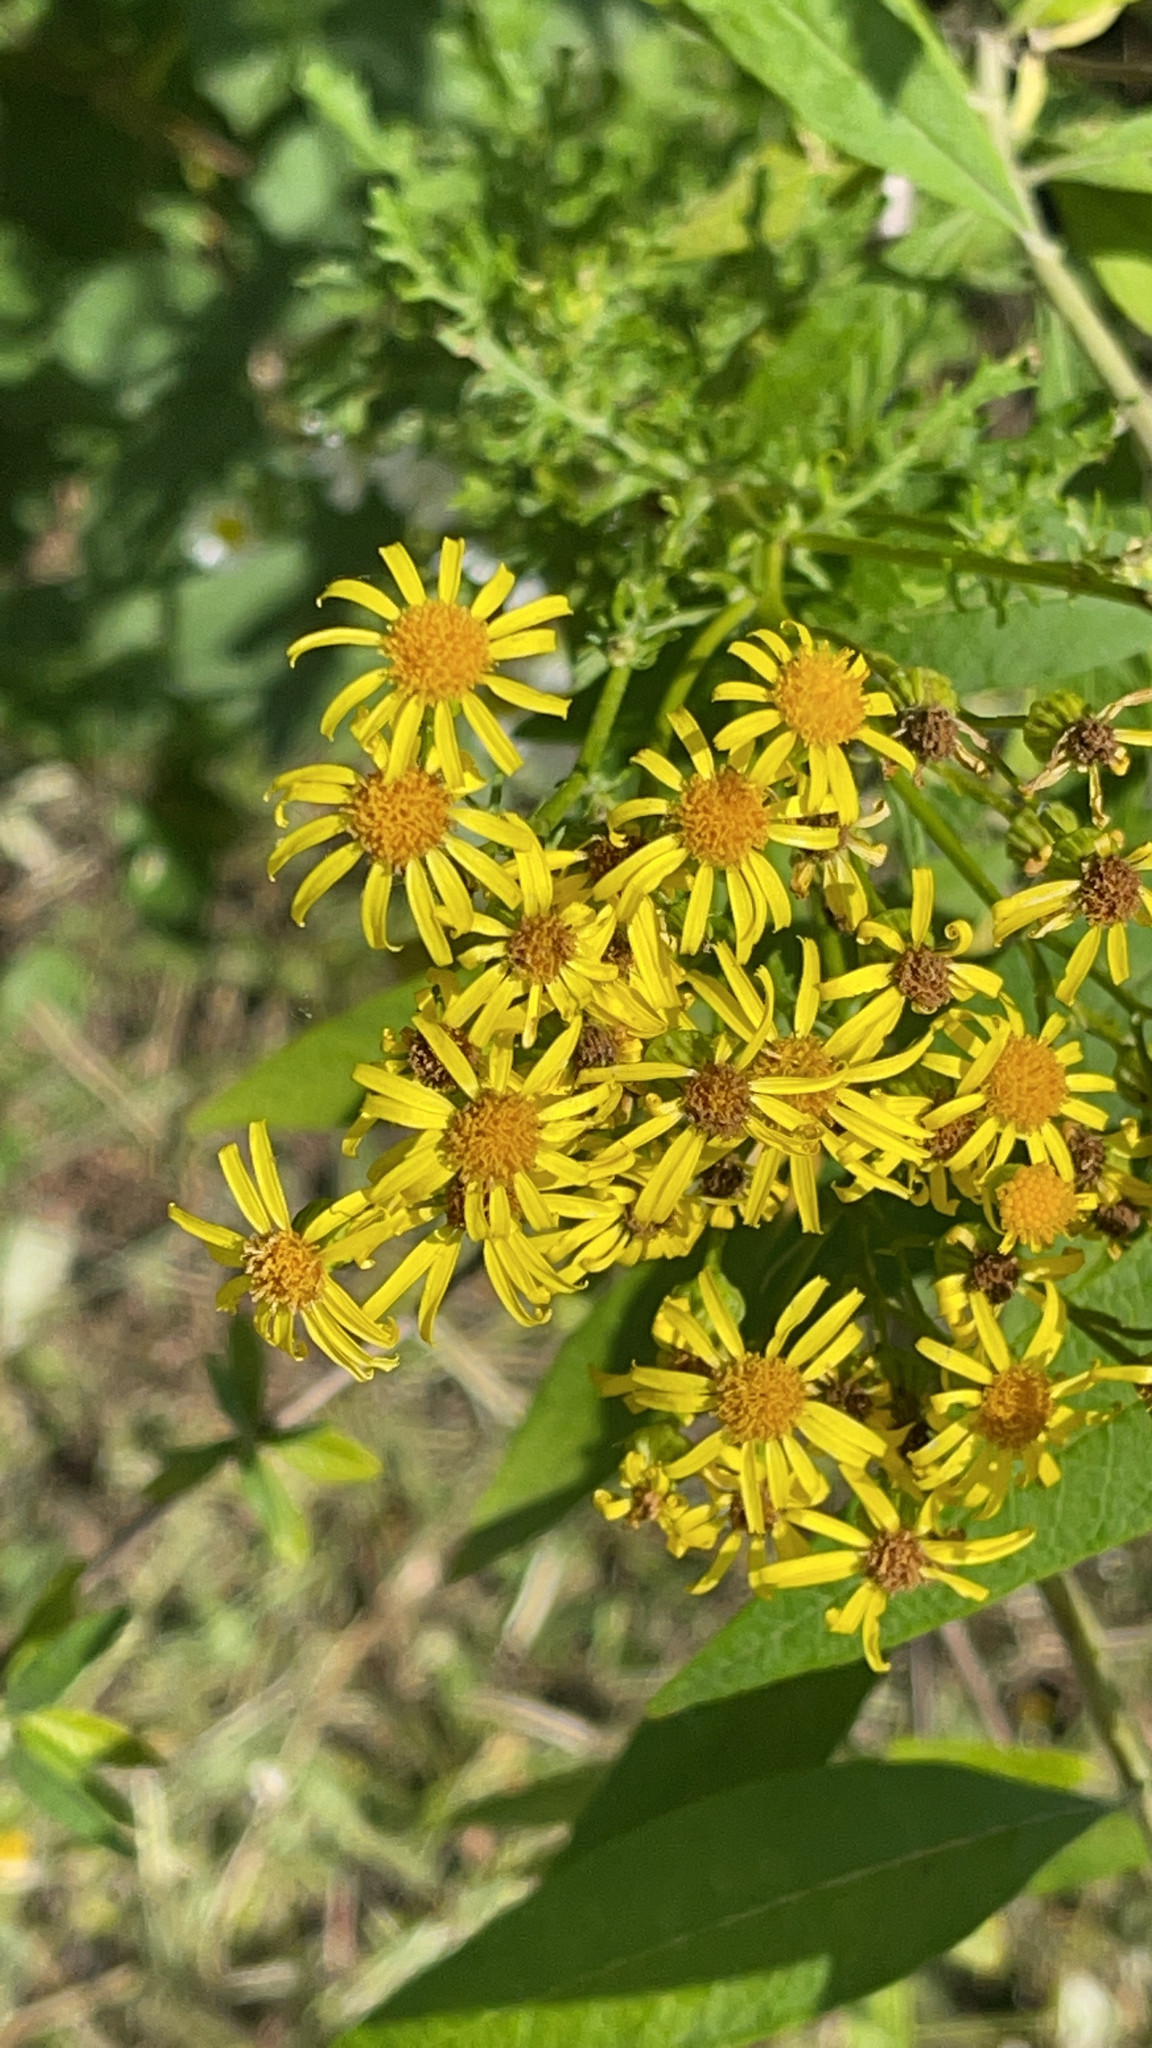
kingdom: Plantae
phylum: Tracheophyta
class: Magnoliopsida
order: Asterales
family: Asteraceae
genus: Jacobaea
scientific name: Jacobaea vulgaris
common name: Stinking willie
